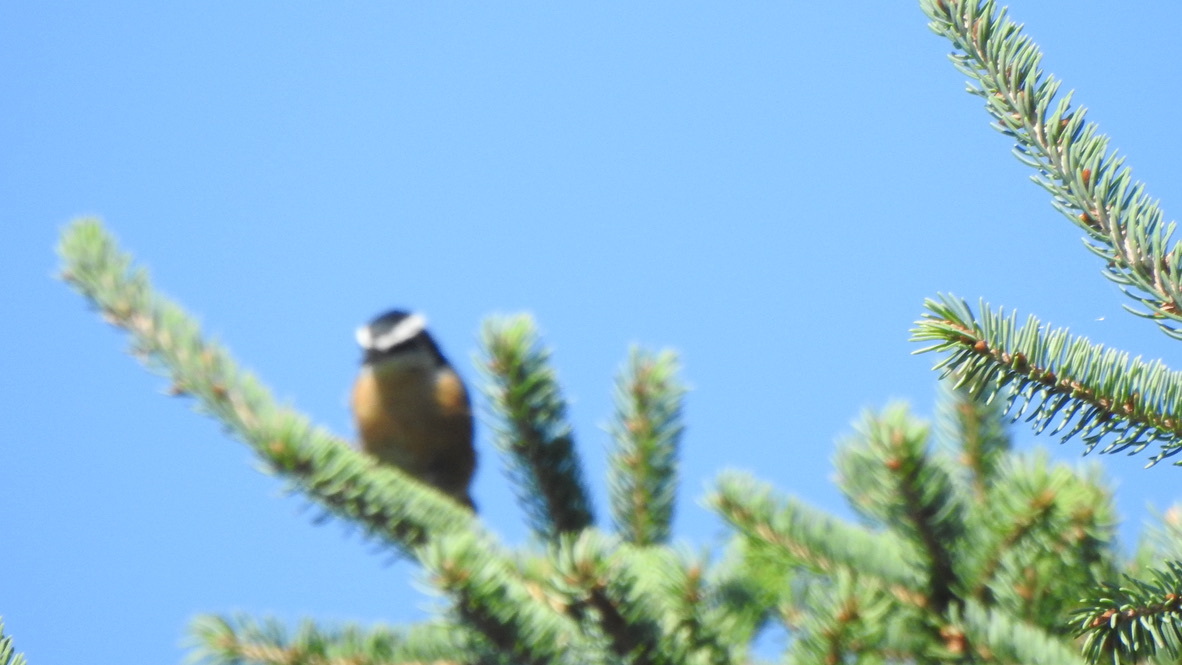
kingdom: Animalia
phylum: Chordata
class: Aves
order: Passeriformes
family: Sittidae
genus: Sitta
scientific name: Sitta canadensis
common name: Red-breasted nuthatch
